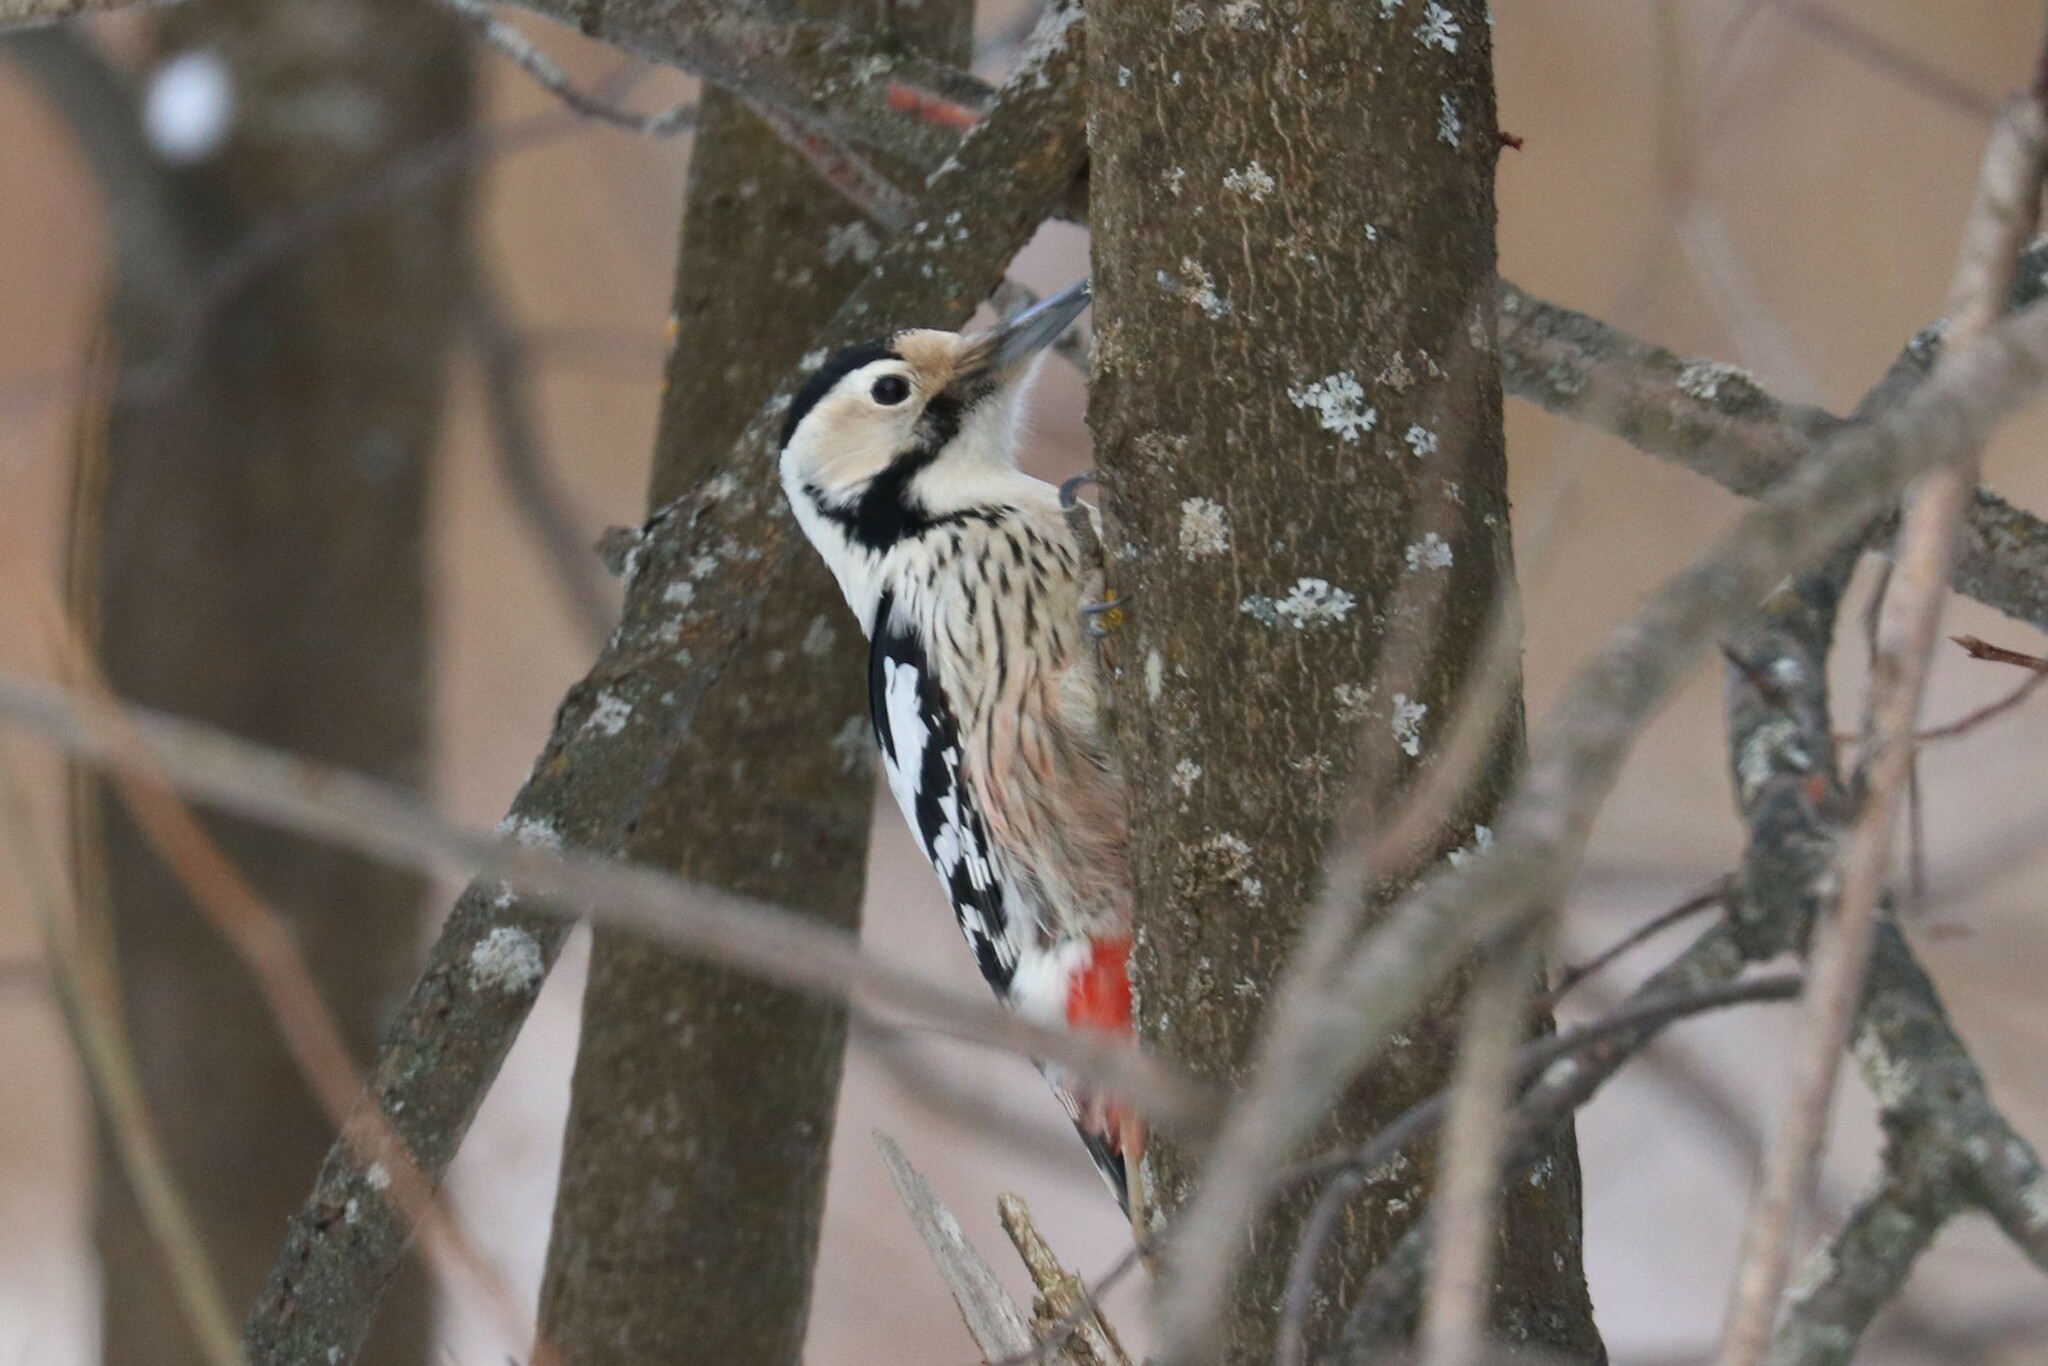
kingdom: Animalia
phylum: Chordata
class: Aves
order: Piciformes
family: Picidae
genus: Dendrocopos
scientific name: Dendrocopos leucotos
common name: White-backed woodpecker
